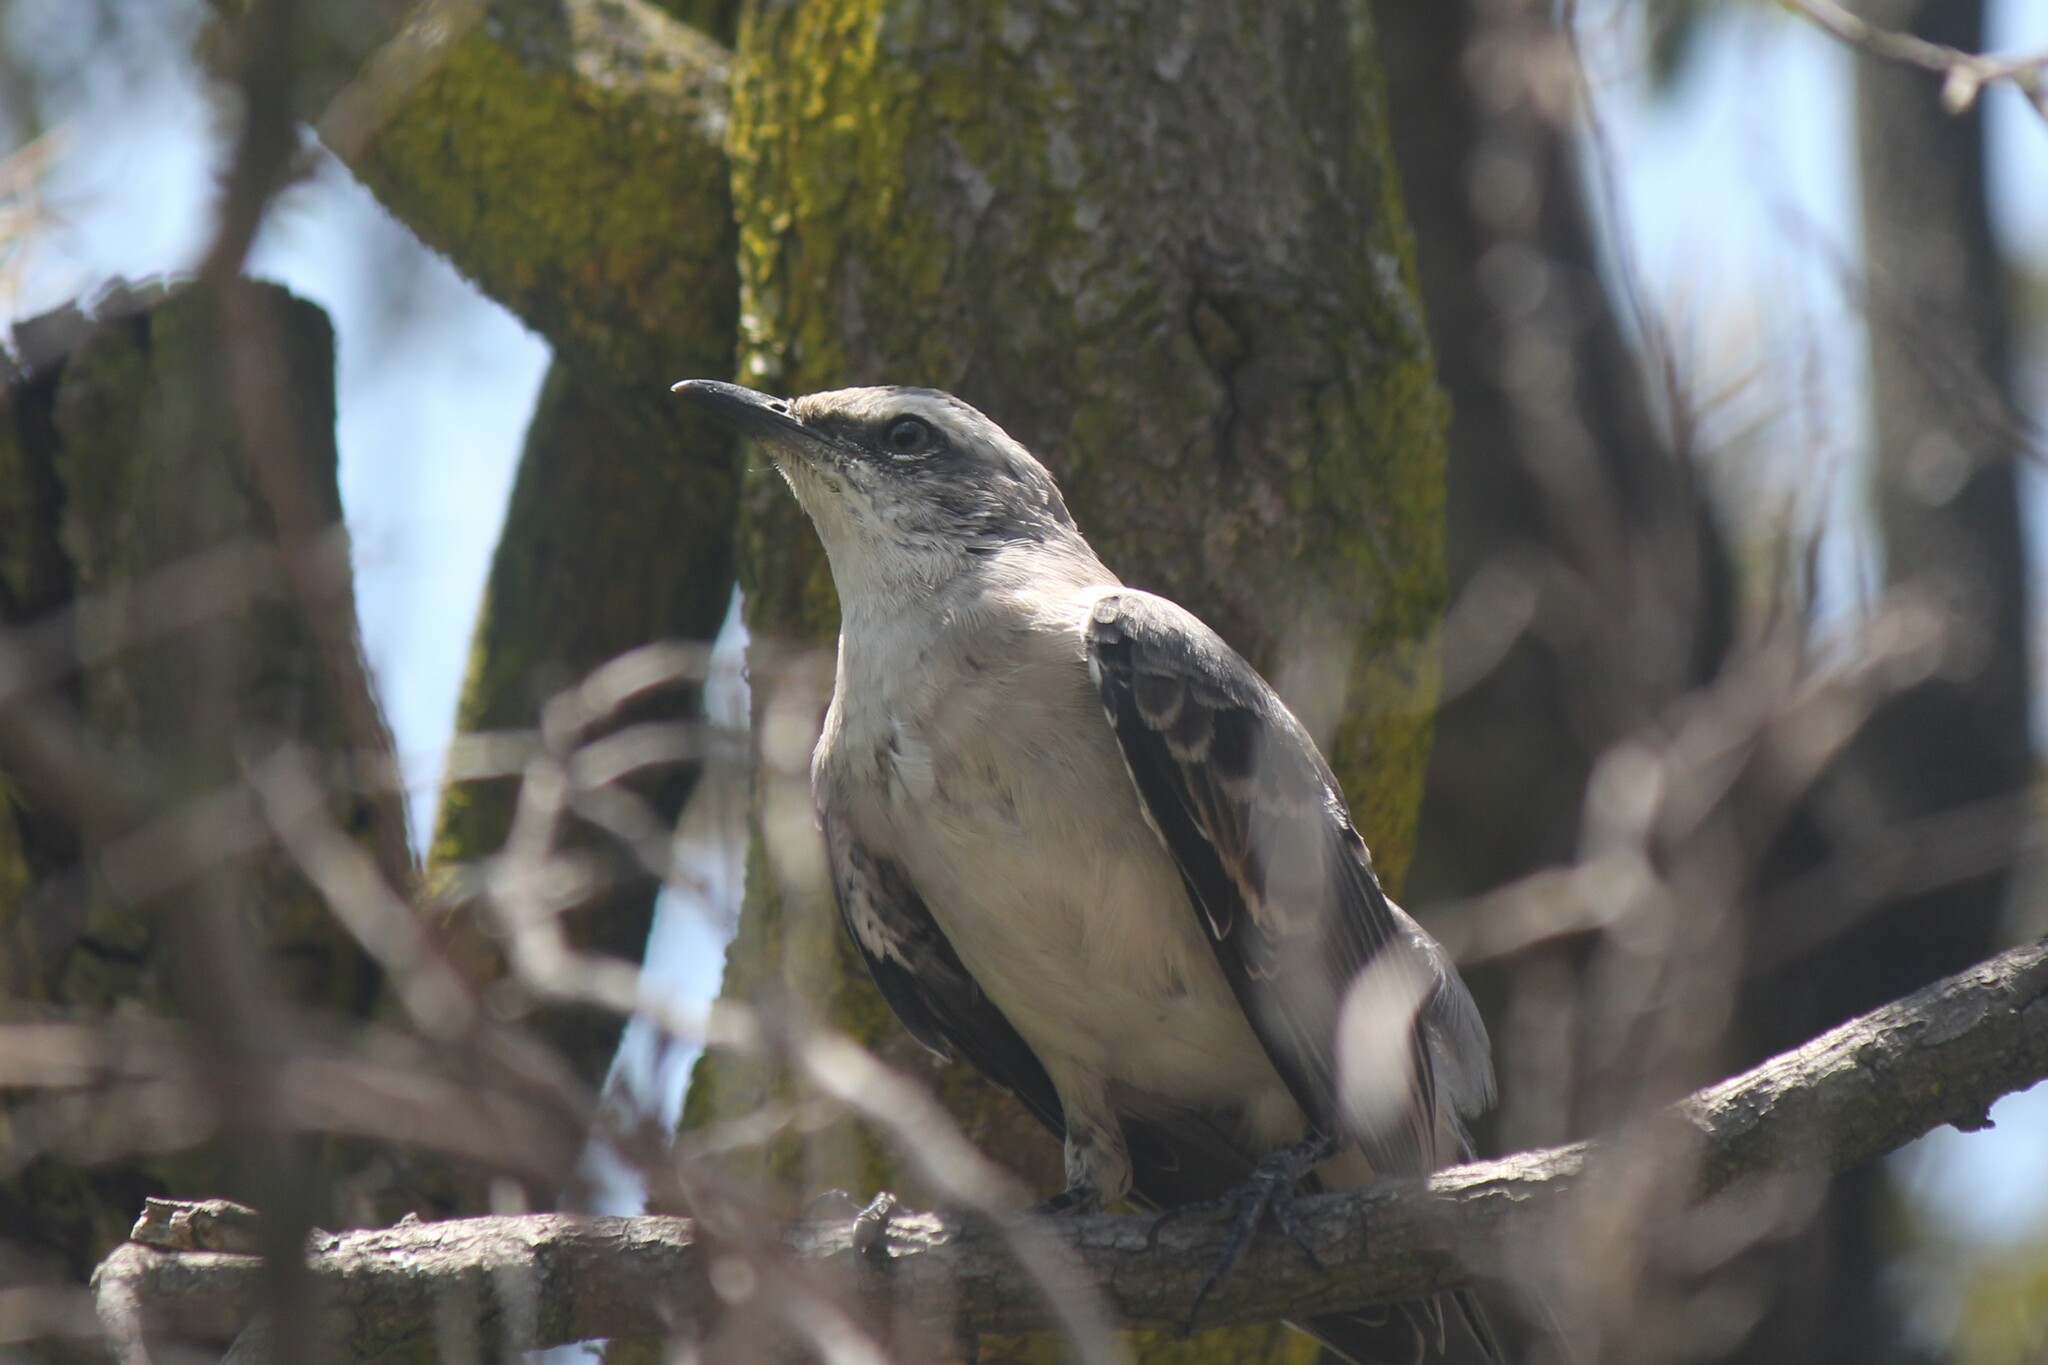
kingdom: Animalia
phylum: Chordata
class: Aves
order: Passeriformes
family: Mimidae
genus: Mimus
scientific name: Mimus gilvus
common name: Tropical mockingbird
